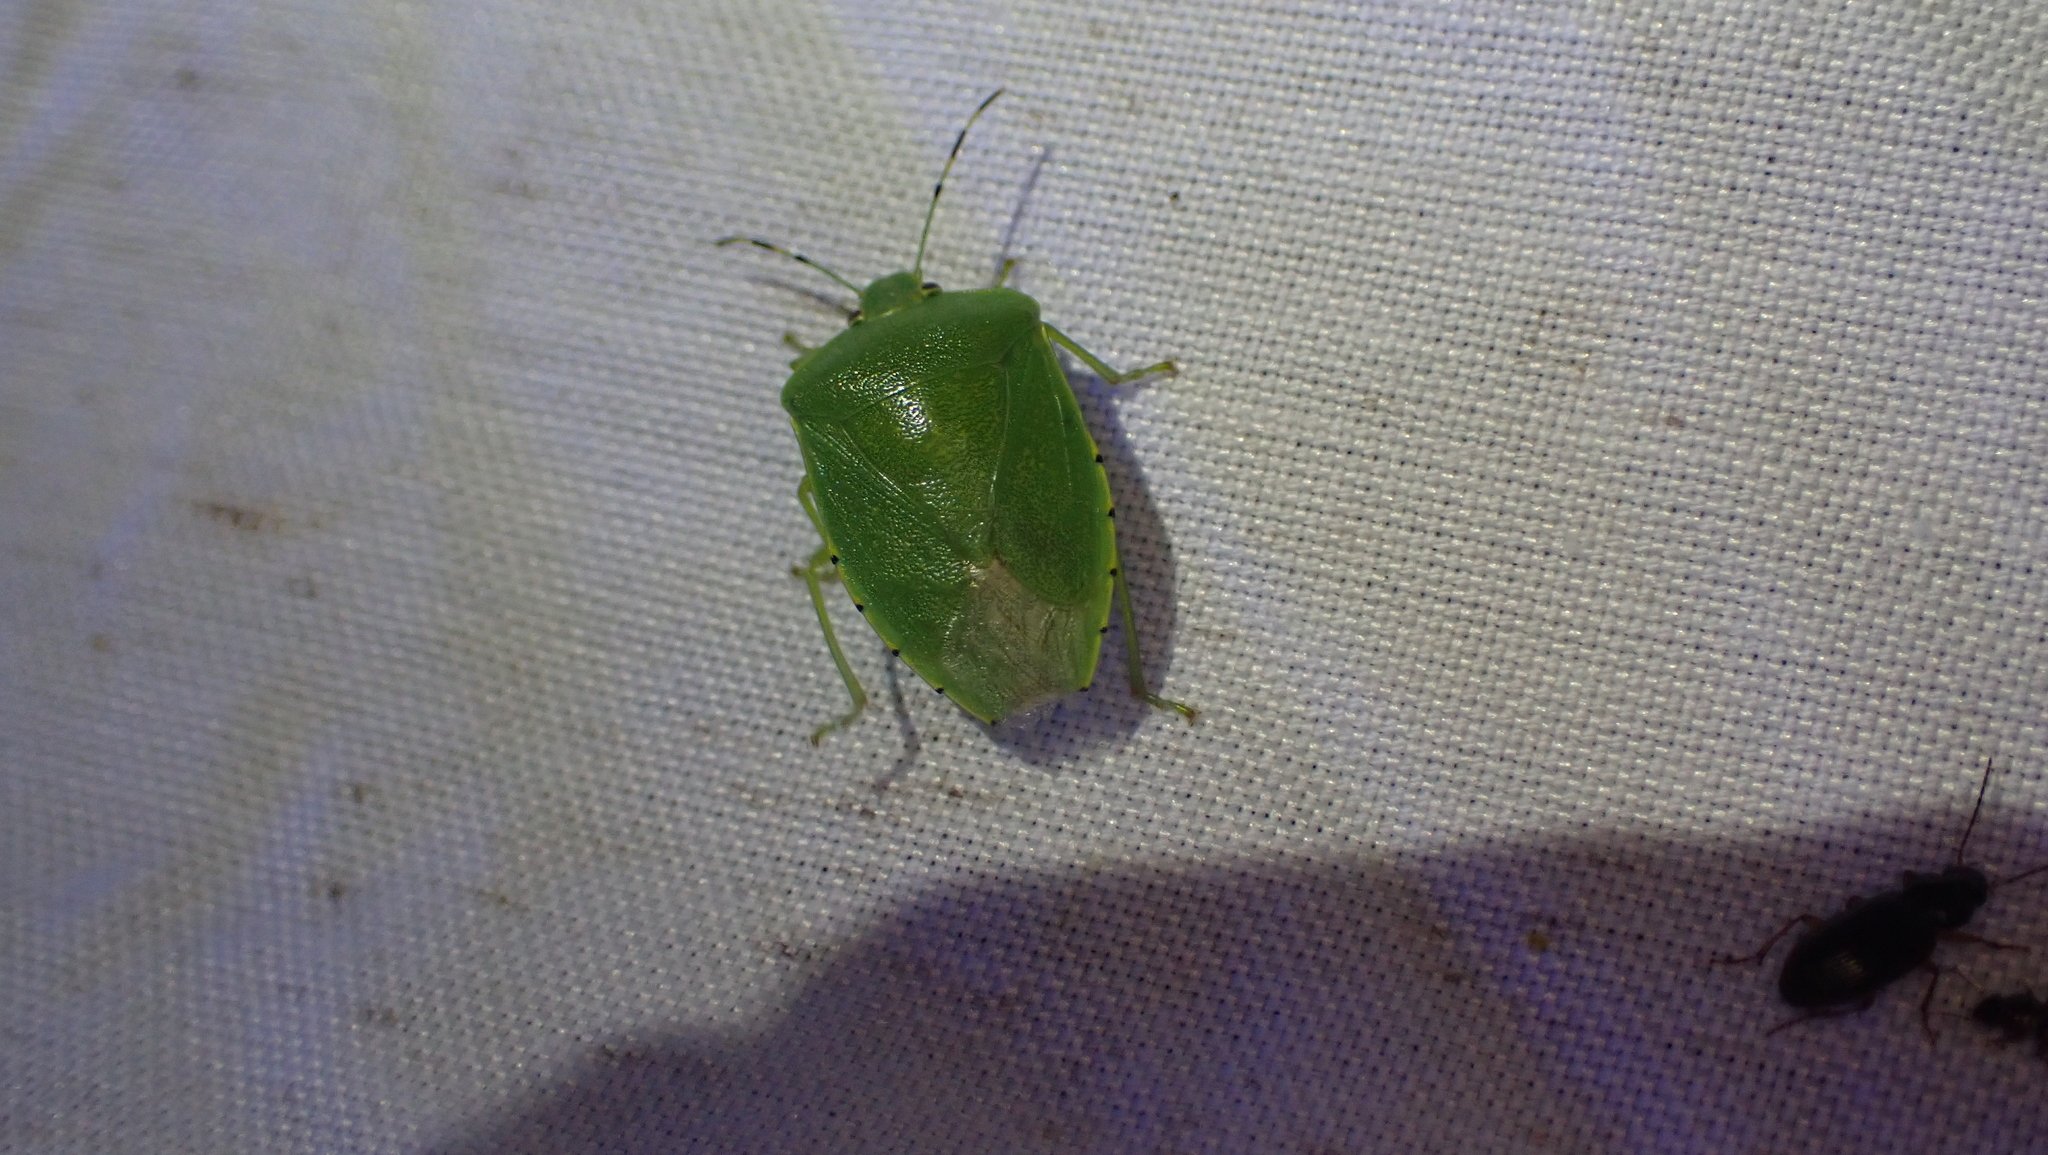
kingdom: Animalia
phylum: Arthropoda
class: Insecta
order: Hemiptera
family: Pentatomidae
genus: Chinavia
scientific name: Chinavia hilaris
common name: Green stink bug
